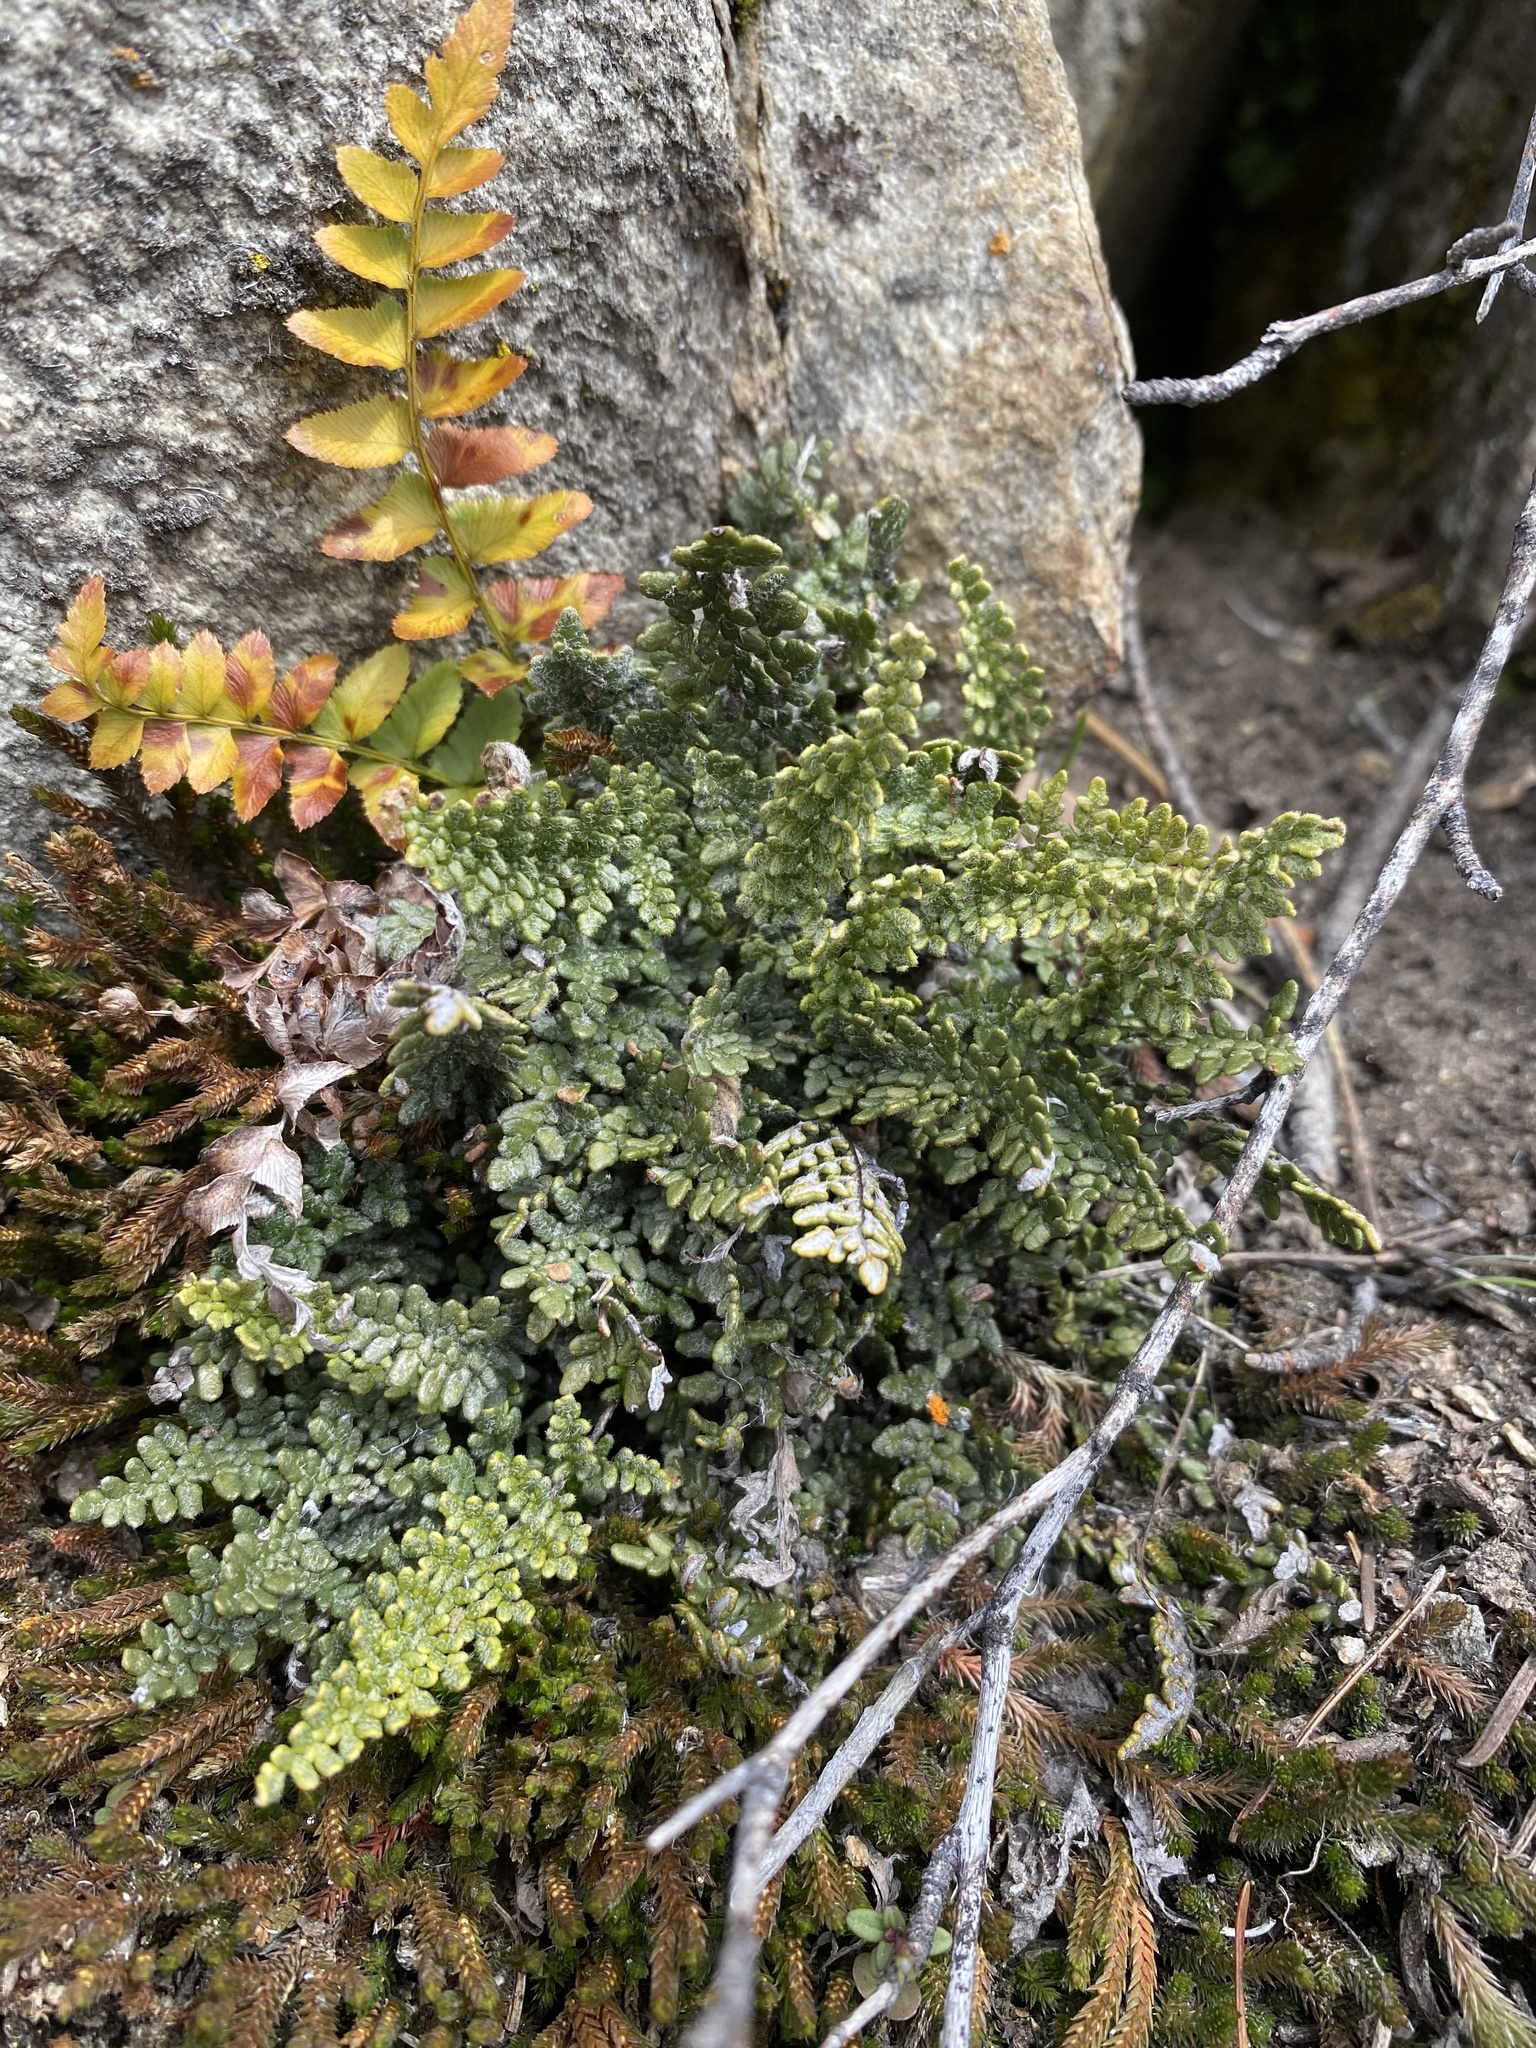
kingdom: Plantae
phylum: Tracheophyta
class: Polypodiopsida
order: Polypodiales
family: Pteridaceae
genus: Myriopteris
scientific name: Myriopteris gracillima
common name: Lace fern
